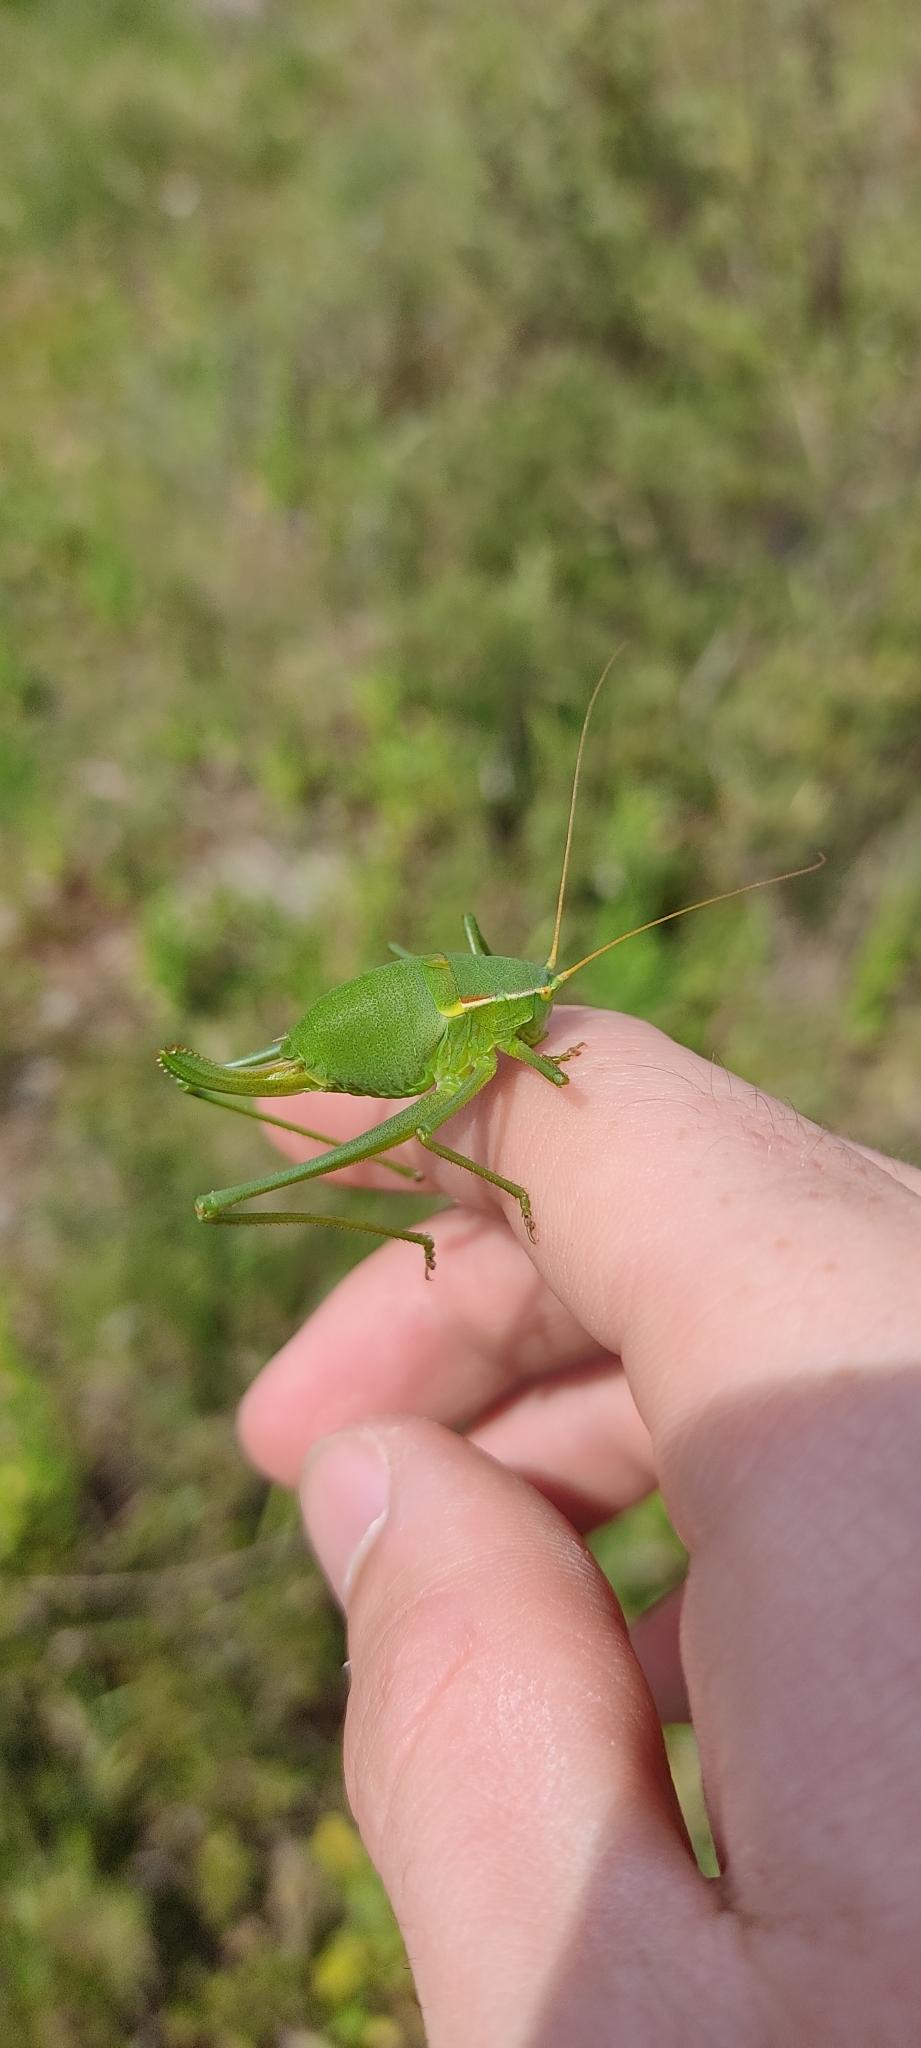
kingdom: Animalia
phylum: Arthropoda
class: Insecta
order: Orthoptera
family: Tettigoniidae
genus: Isophya
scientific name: Isophya pyrenaea
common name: Pyrenean plump bush-cricket
